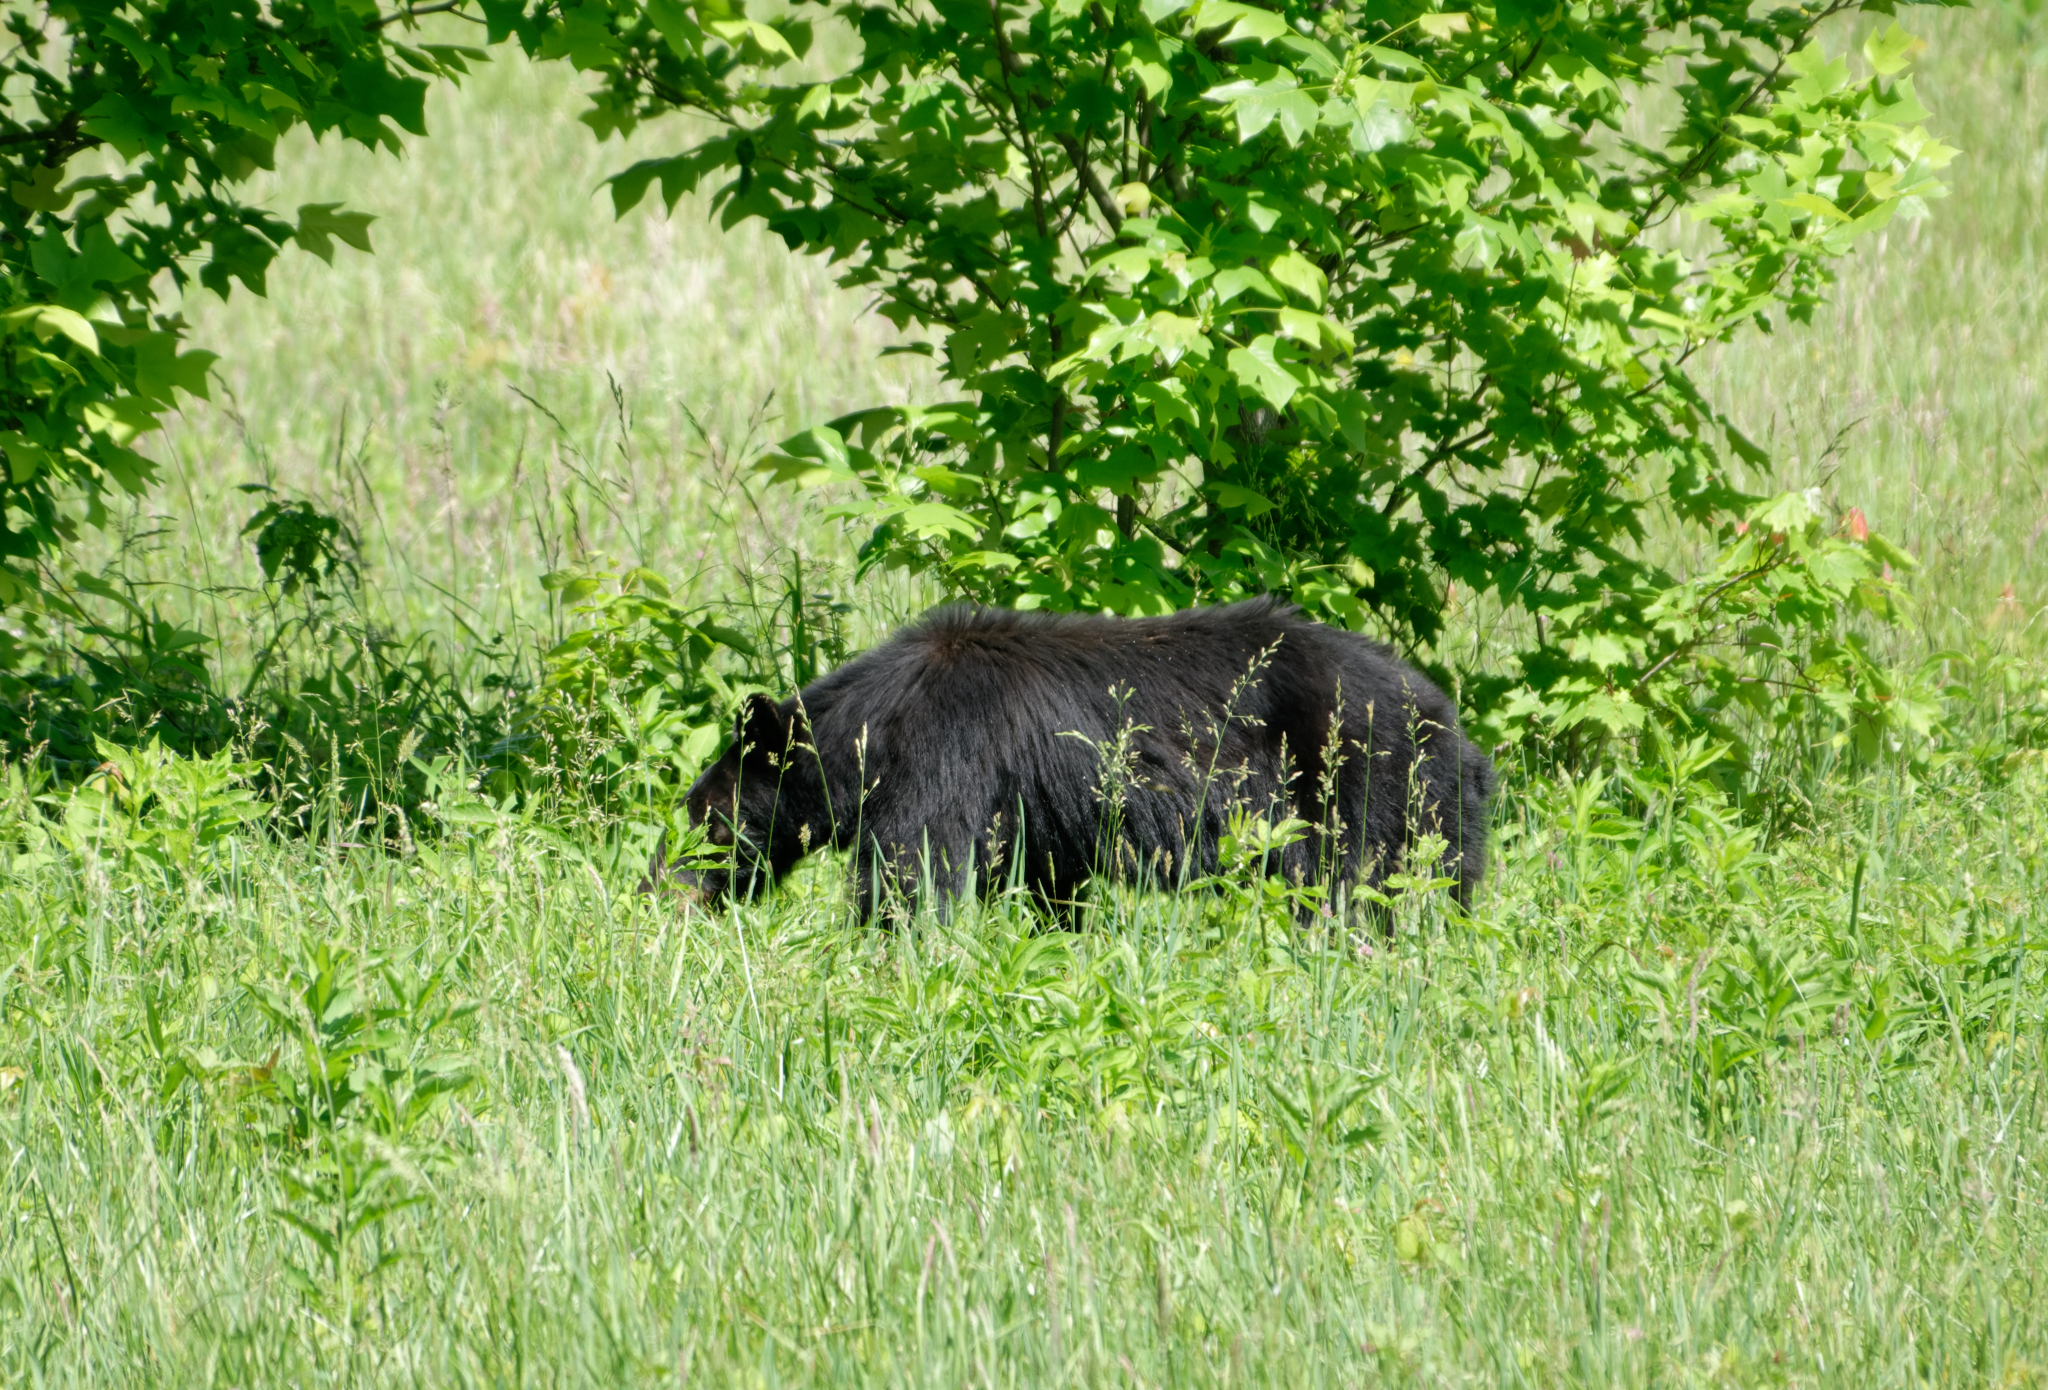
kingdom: Animalia
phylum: Chordata
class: Mammalia
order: Carnivora
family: Ursidae
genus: Ursus
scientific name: Ursus americanus
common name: American black bear
